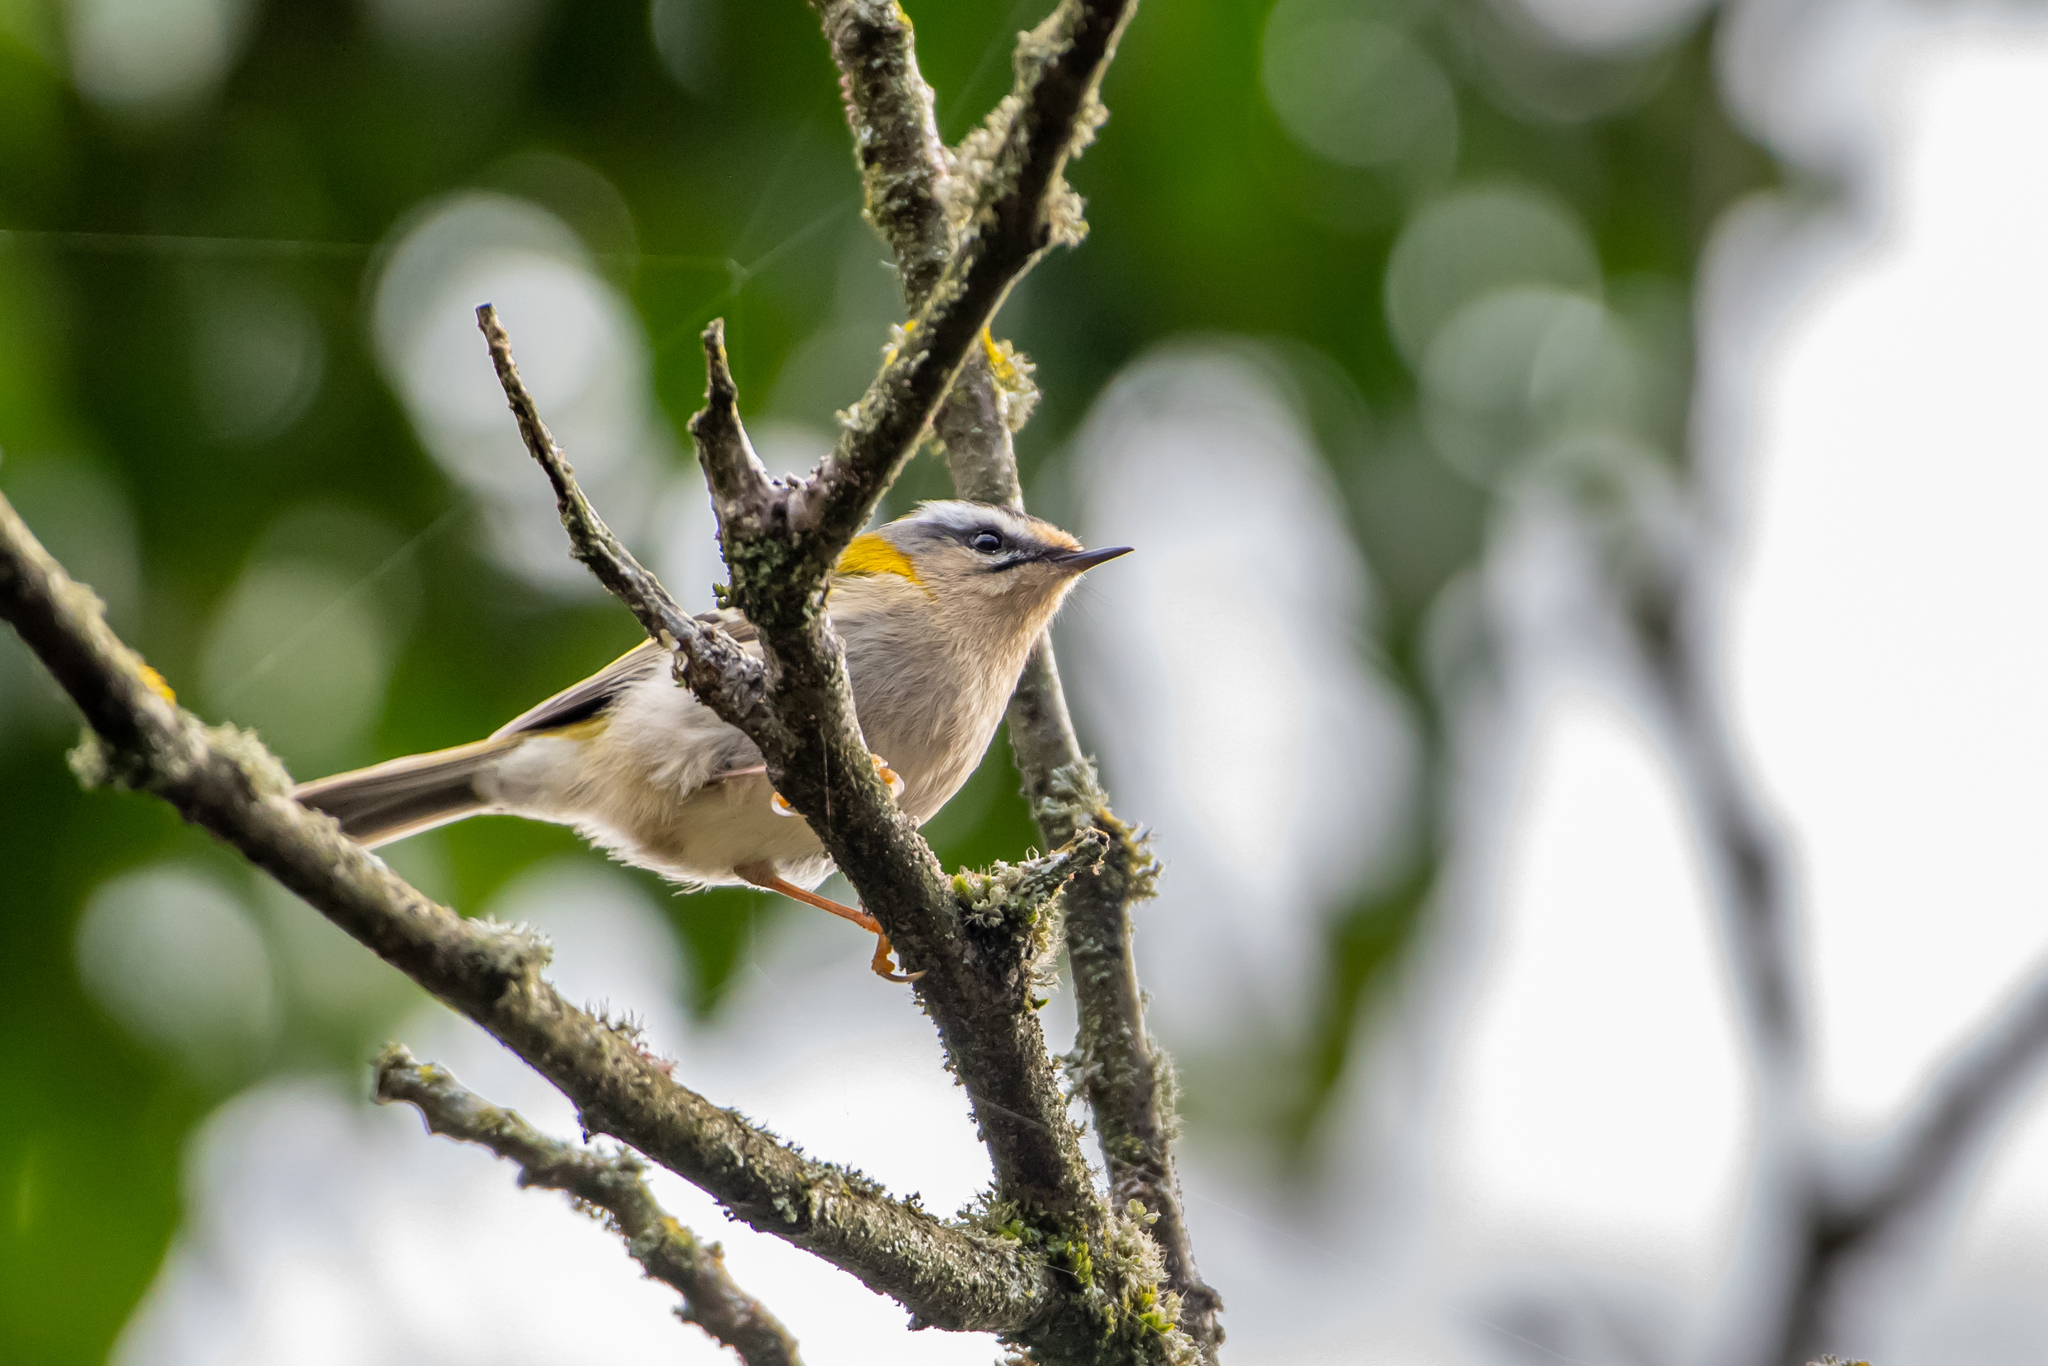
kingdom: Animalia
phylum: Chordata
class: Aves
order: Passeriformes
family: Regulidae
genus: Regulus
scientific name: Regulus ignicapilla
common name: Firecrest
